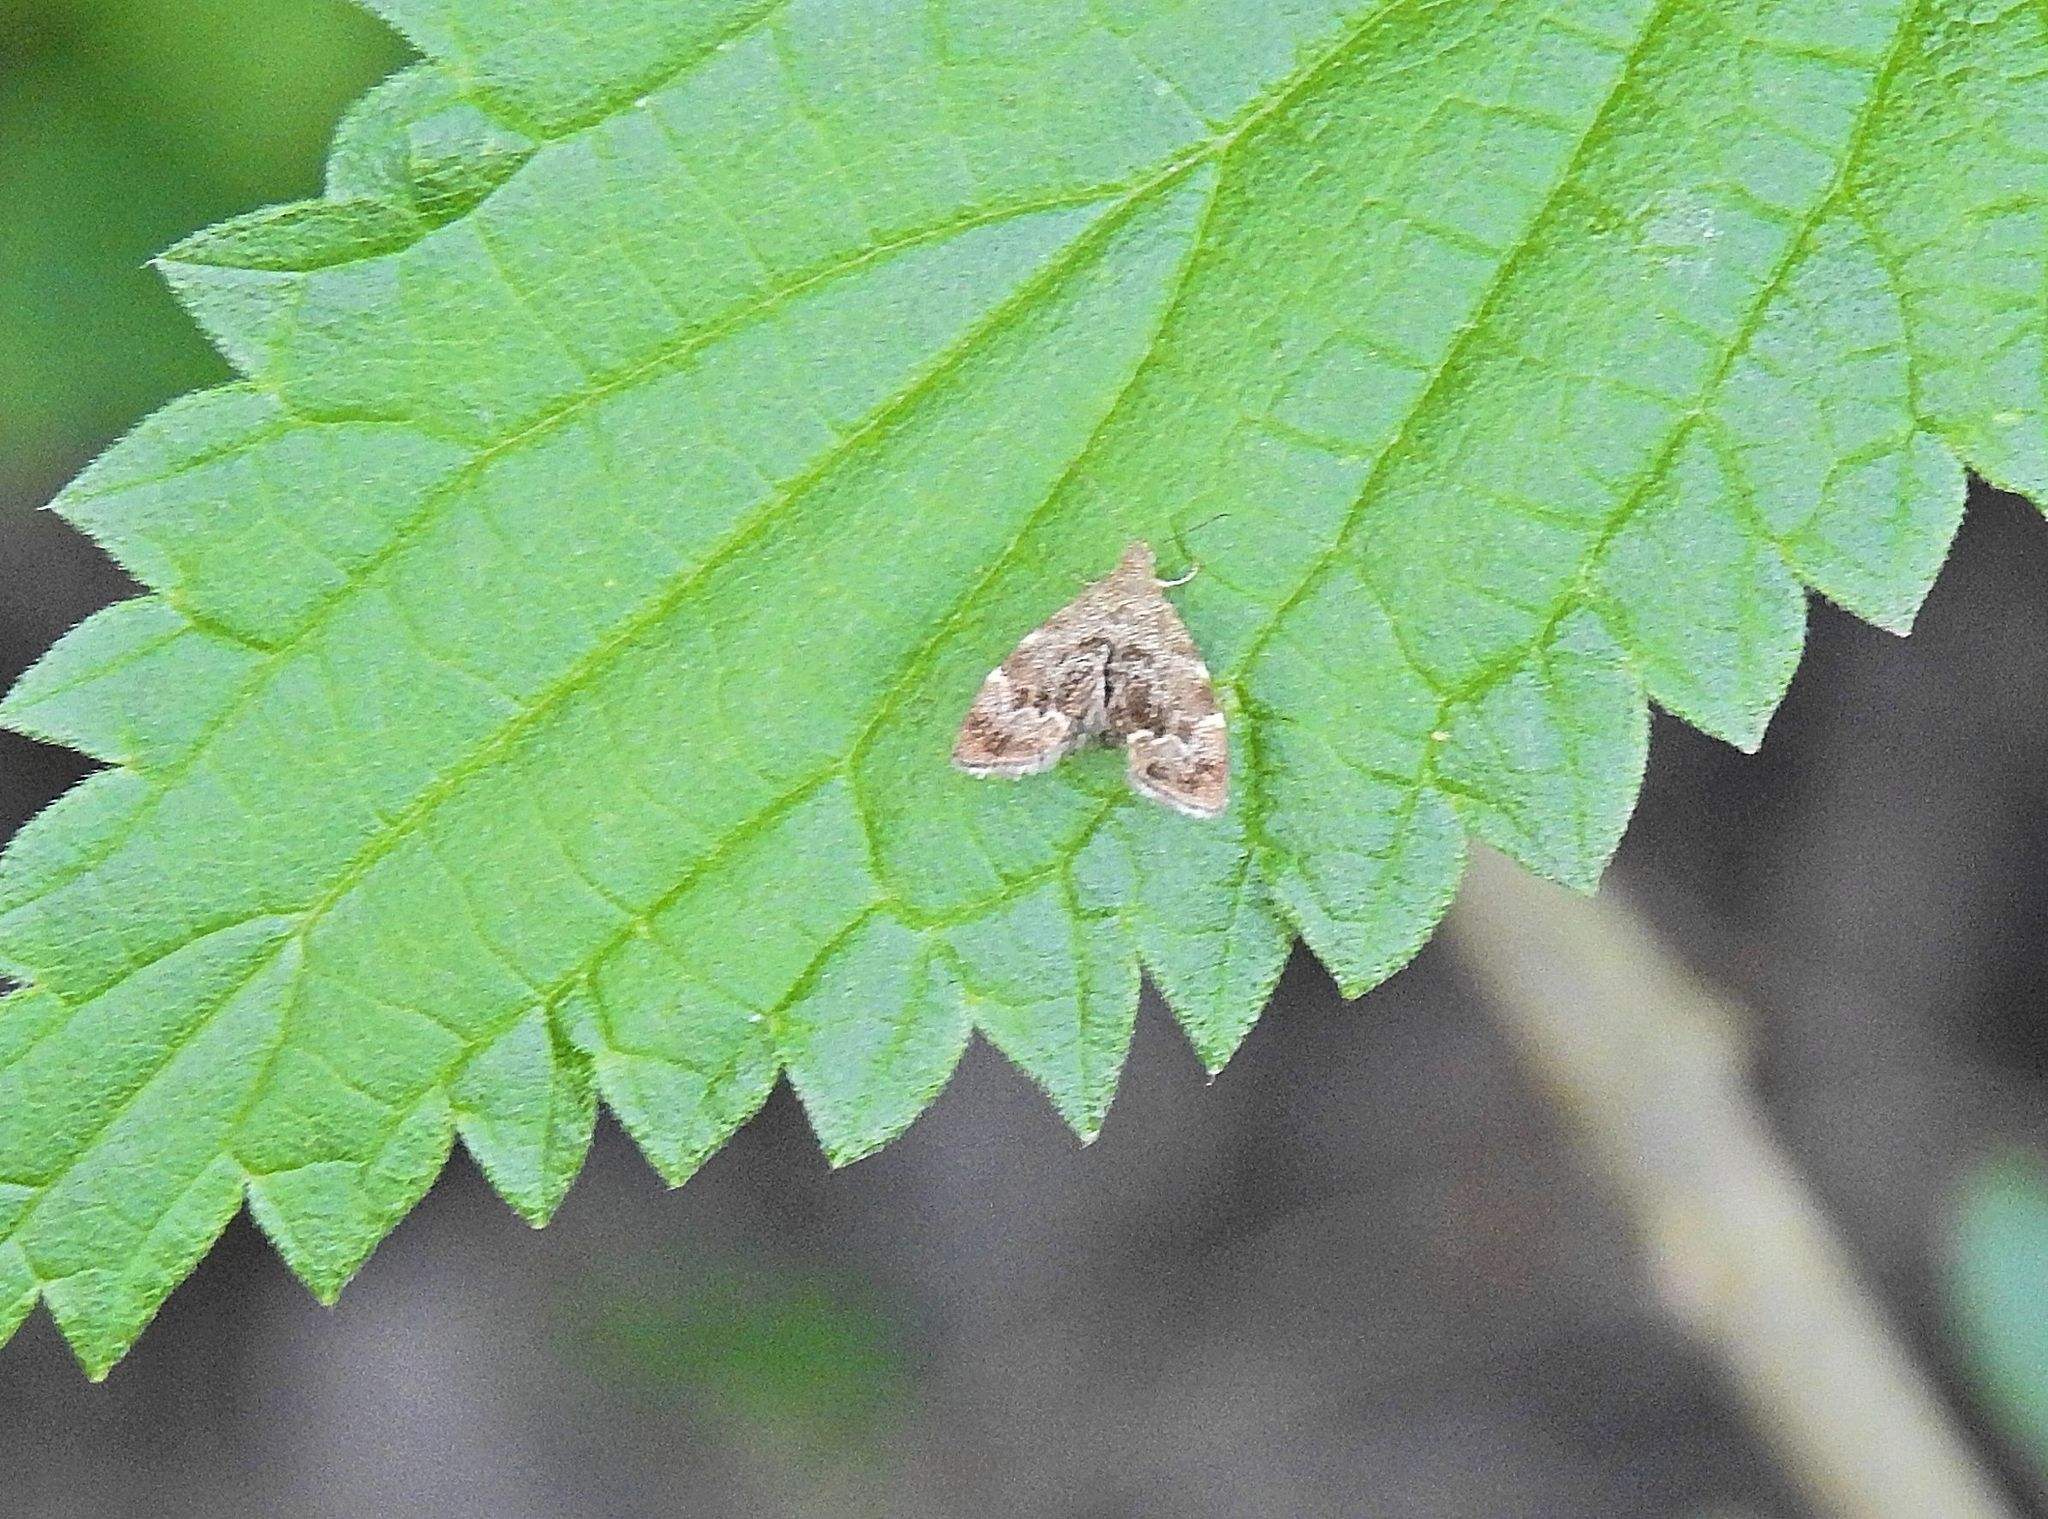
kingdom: Animalia
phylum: Arthropoda
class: Insecta
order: Lepidoptera
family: Choreutidae
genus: Anthophila
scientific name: Anthophila fabriciana
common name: Nettle-tap
